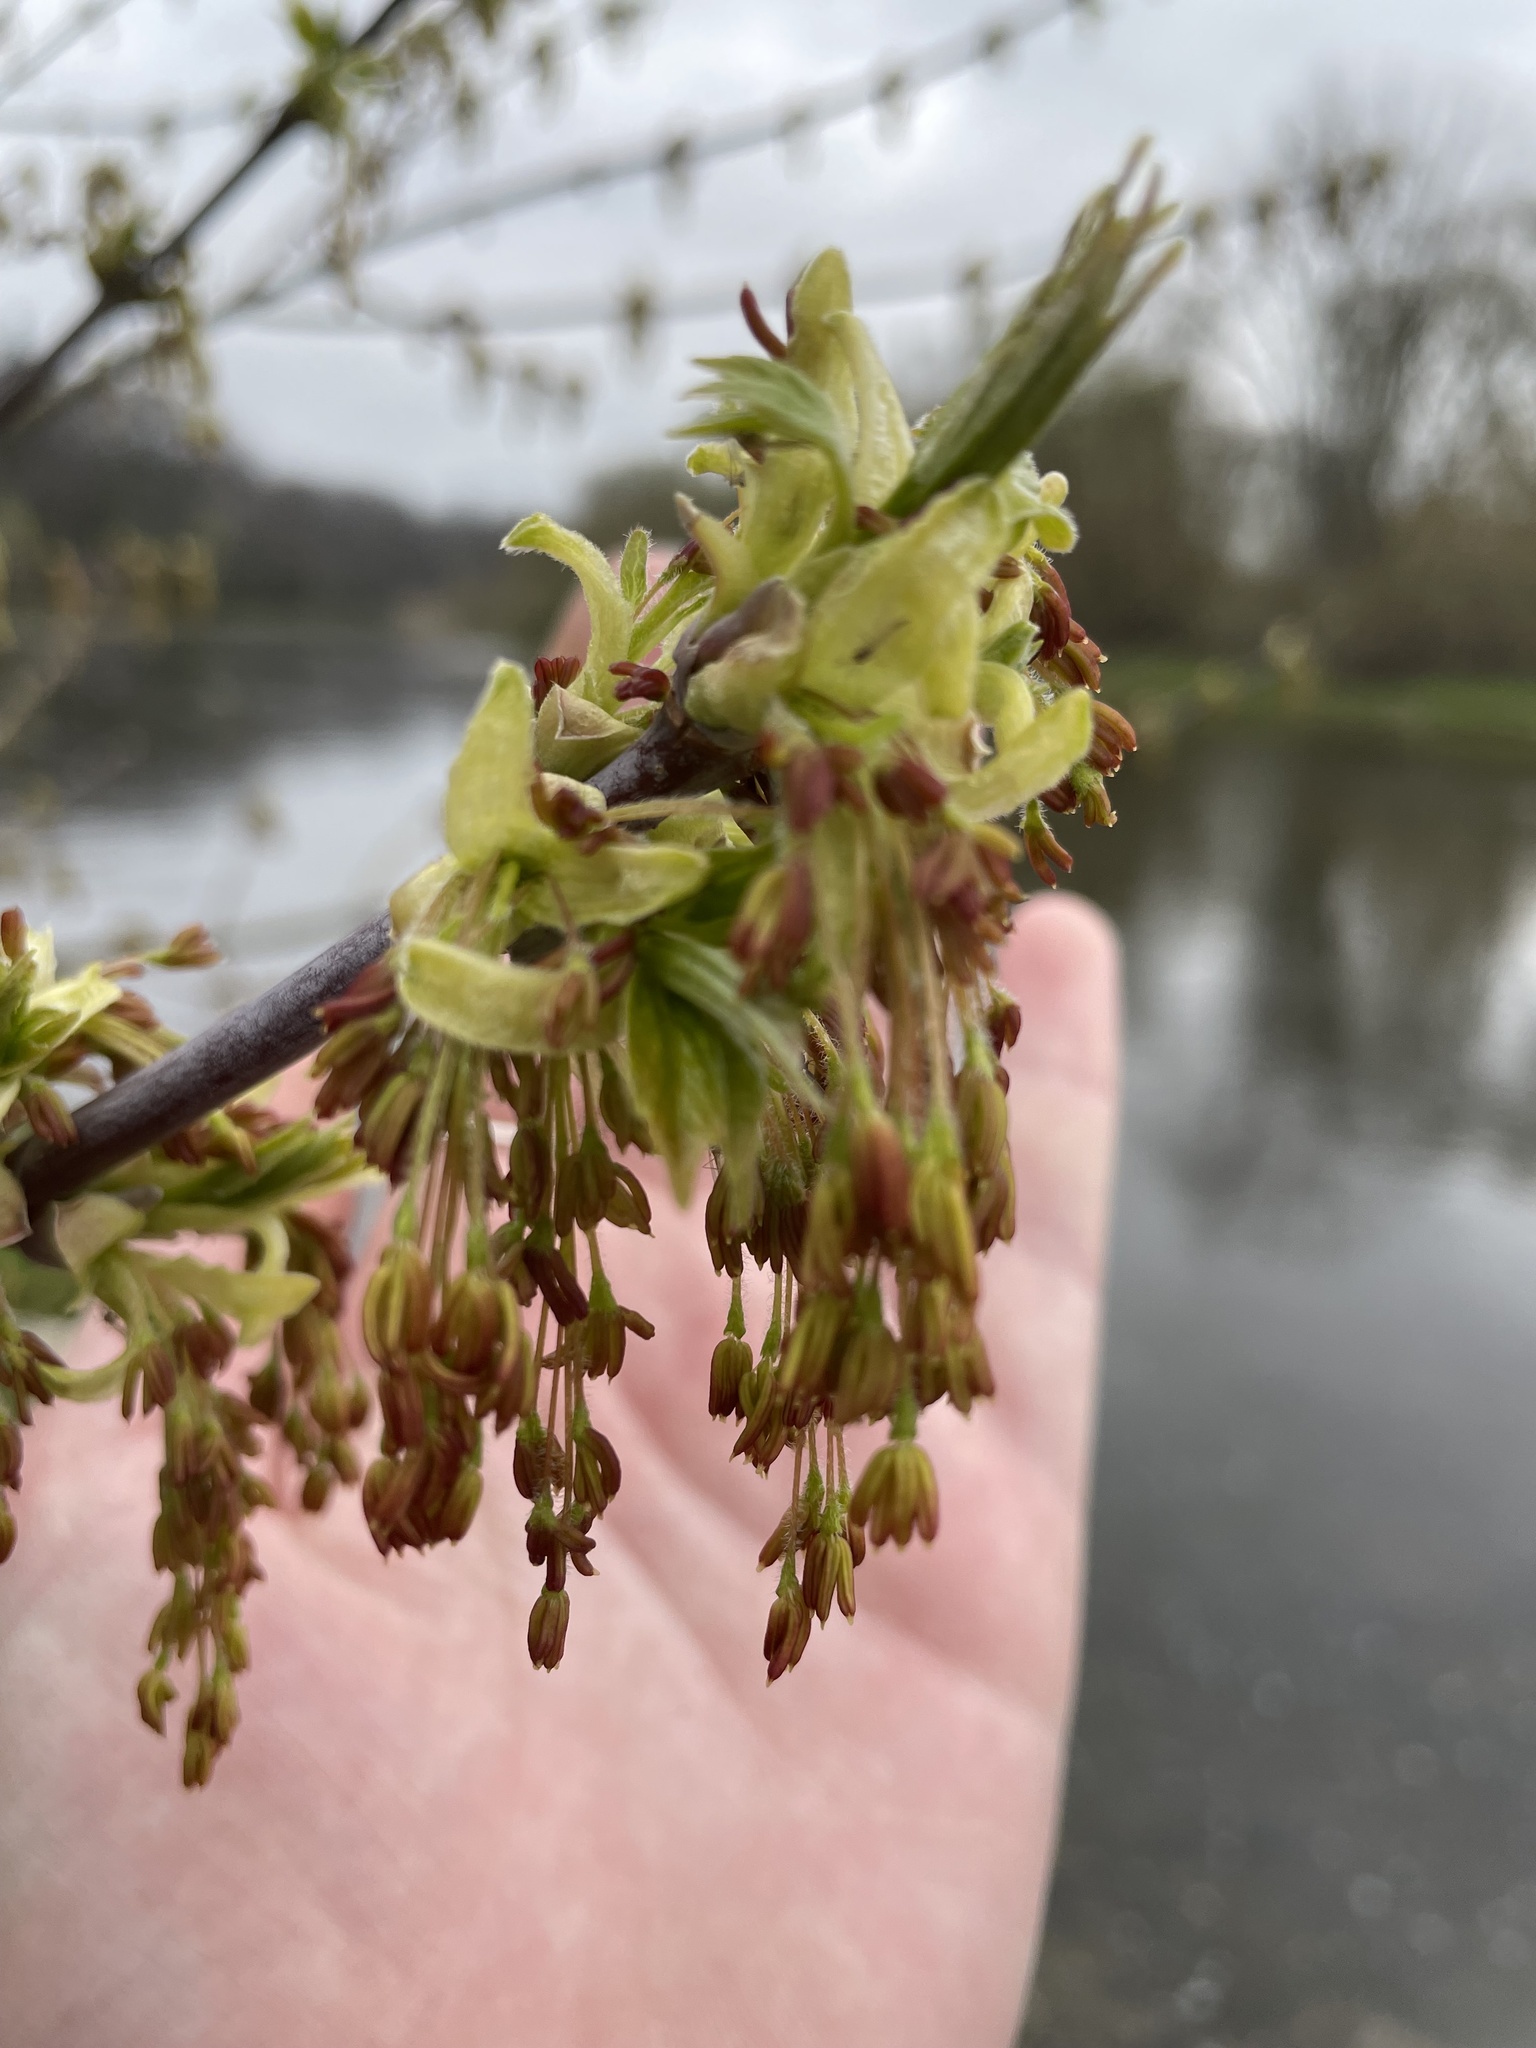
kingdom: Plantae
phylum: Tracheophyta
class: Magnoliopsida
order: Sapindales
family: Sapindaceae
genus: Acer
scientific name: Acer negundo
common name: Ashleaf maple
